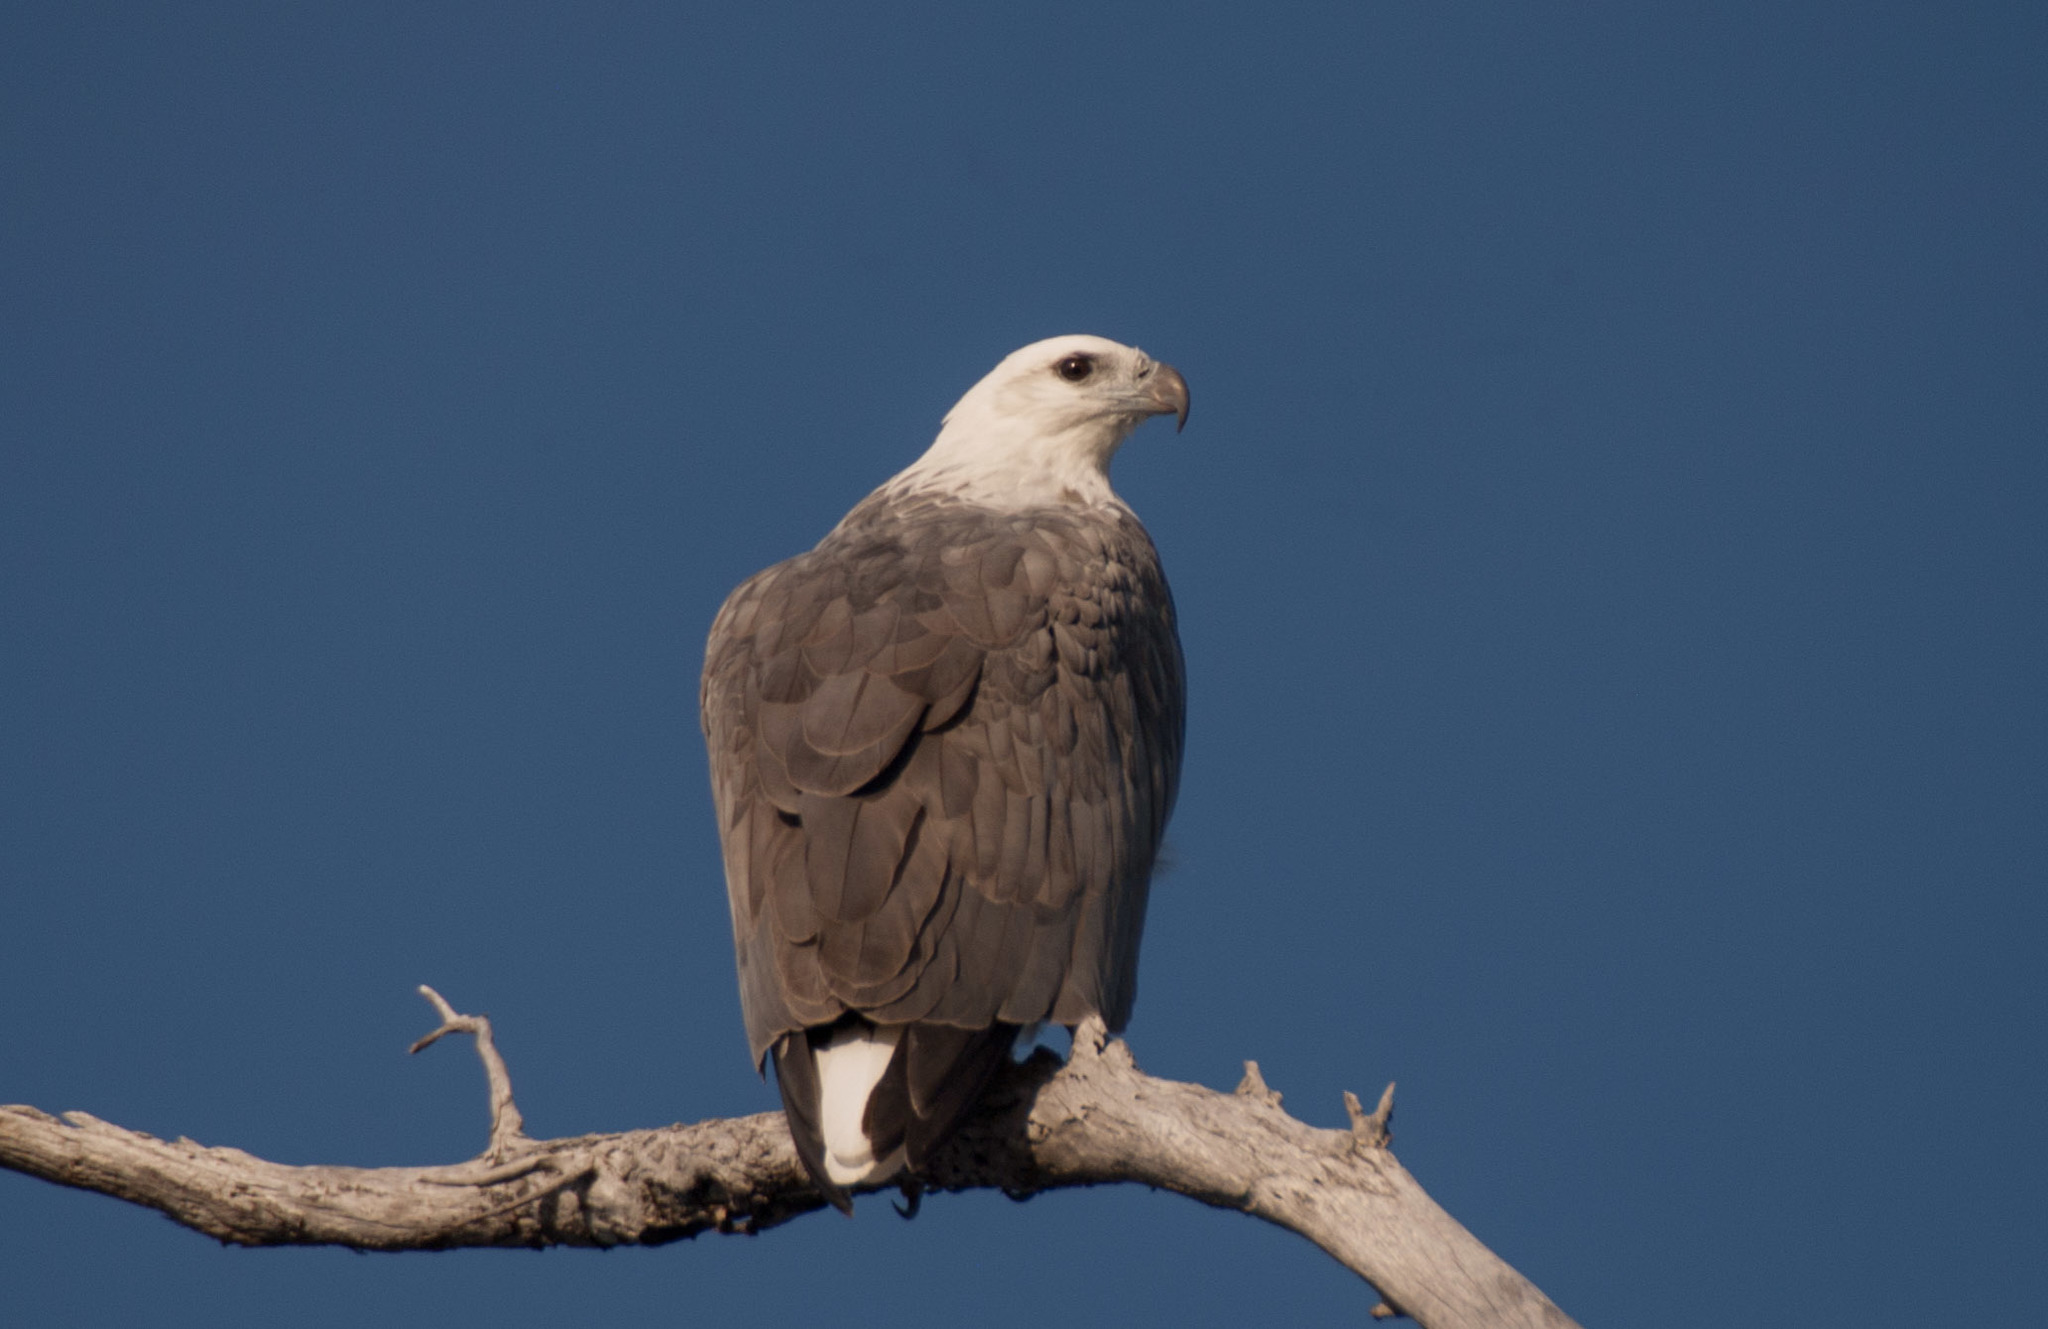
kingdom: Animalia
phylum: Chordata
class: Aves
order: Accipitriformes
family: Accipitridae
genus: Haliaeetus
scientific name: Haliaeetus leucogaster
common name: White-bellied sea eagle
